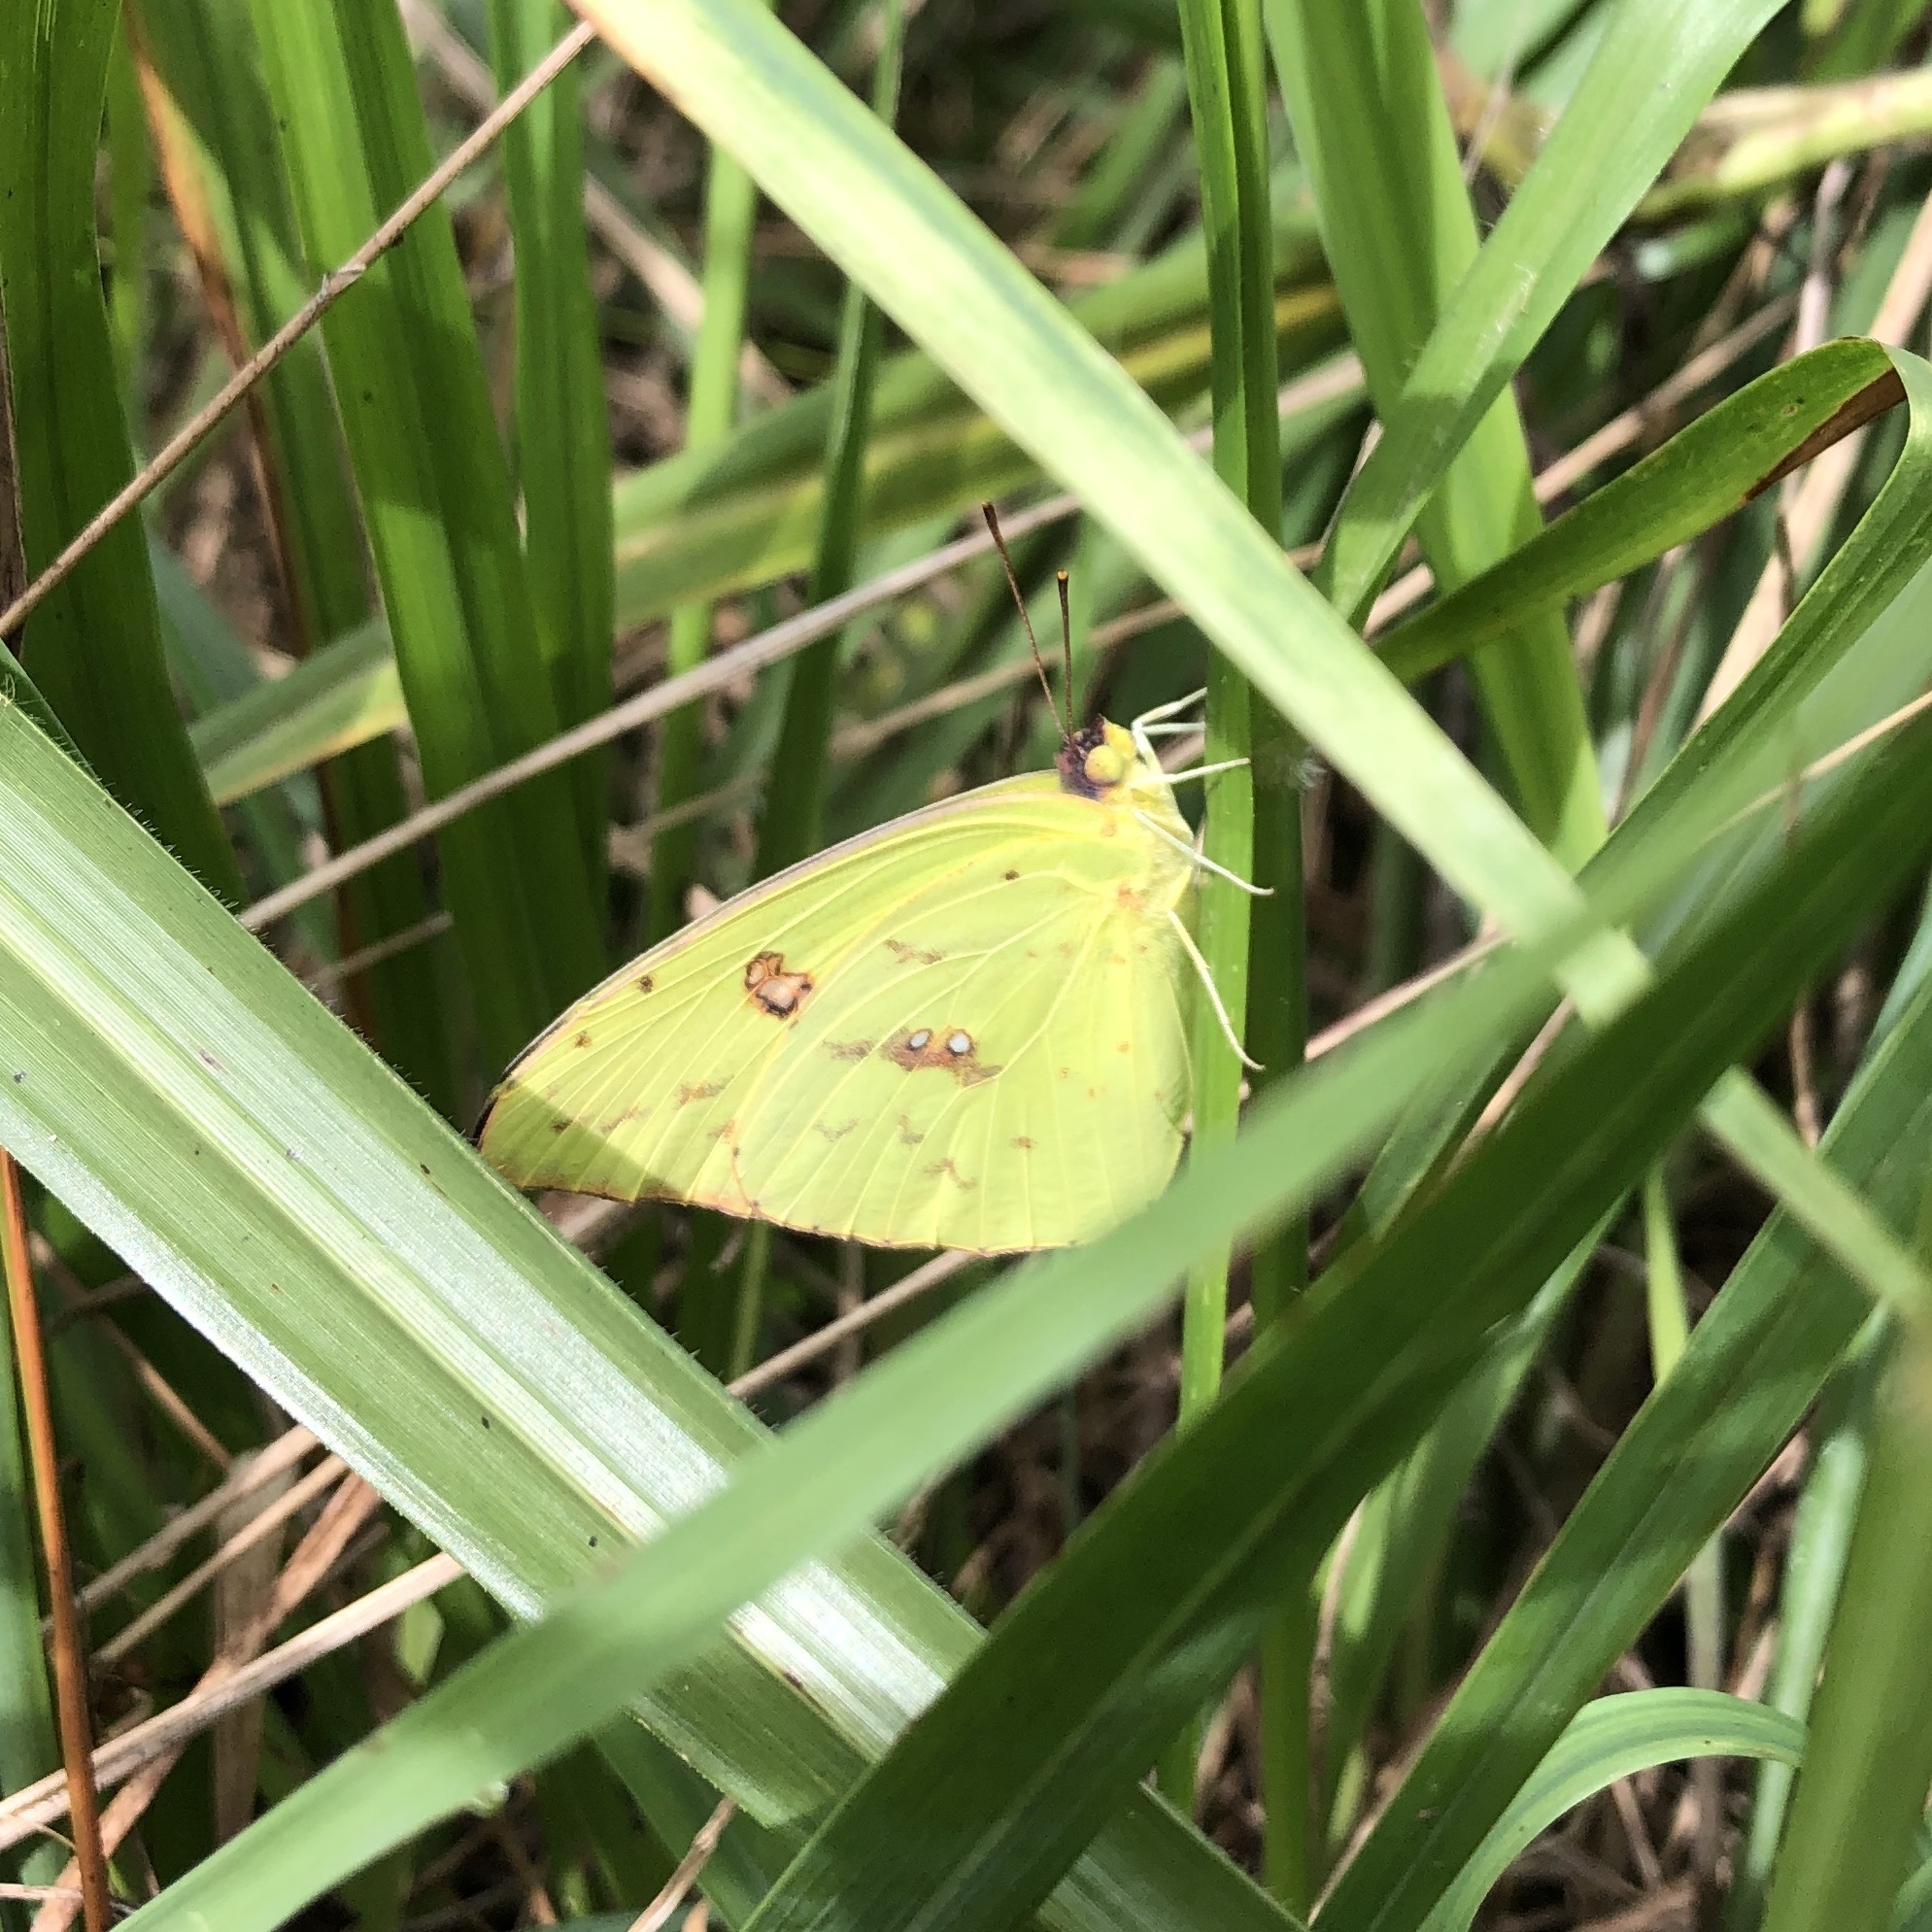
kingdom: Animalia
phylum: Arthropoda
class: Insecta
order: Lepidoptera
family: Pieridae
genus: Phoebis
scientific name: Phoebis sennae
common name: Cloudless sulphur
